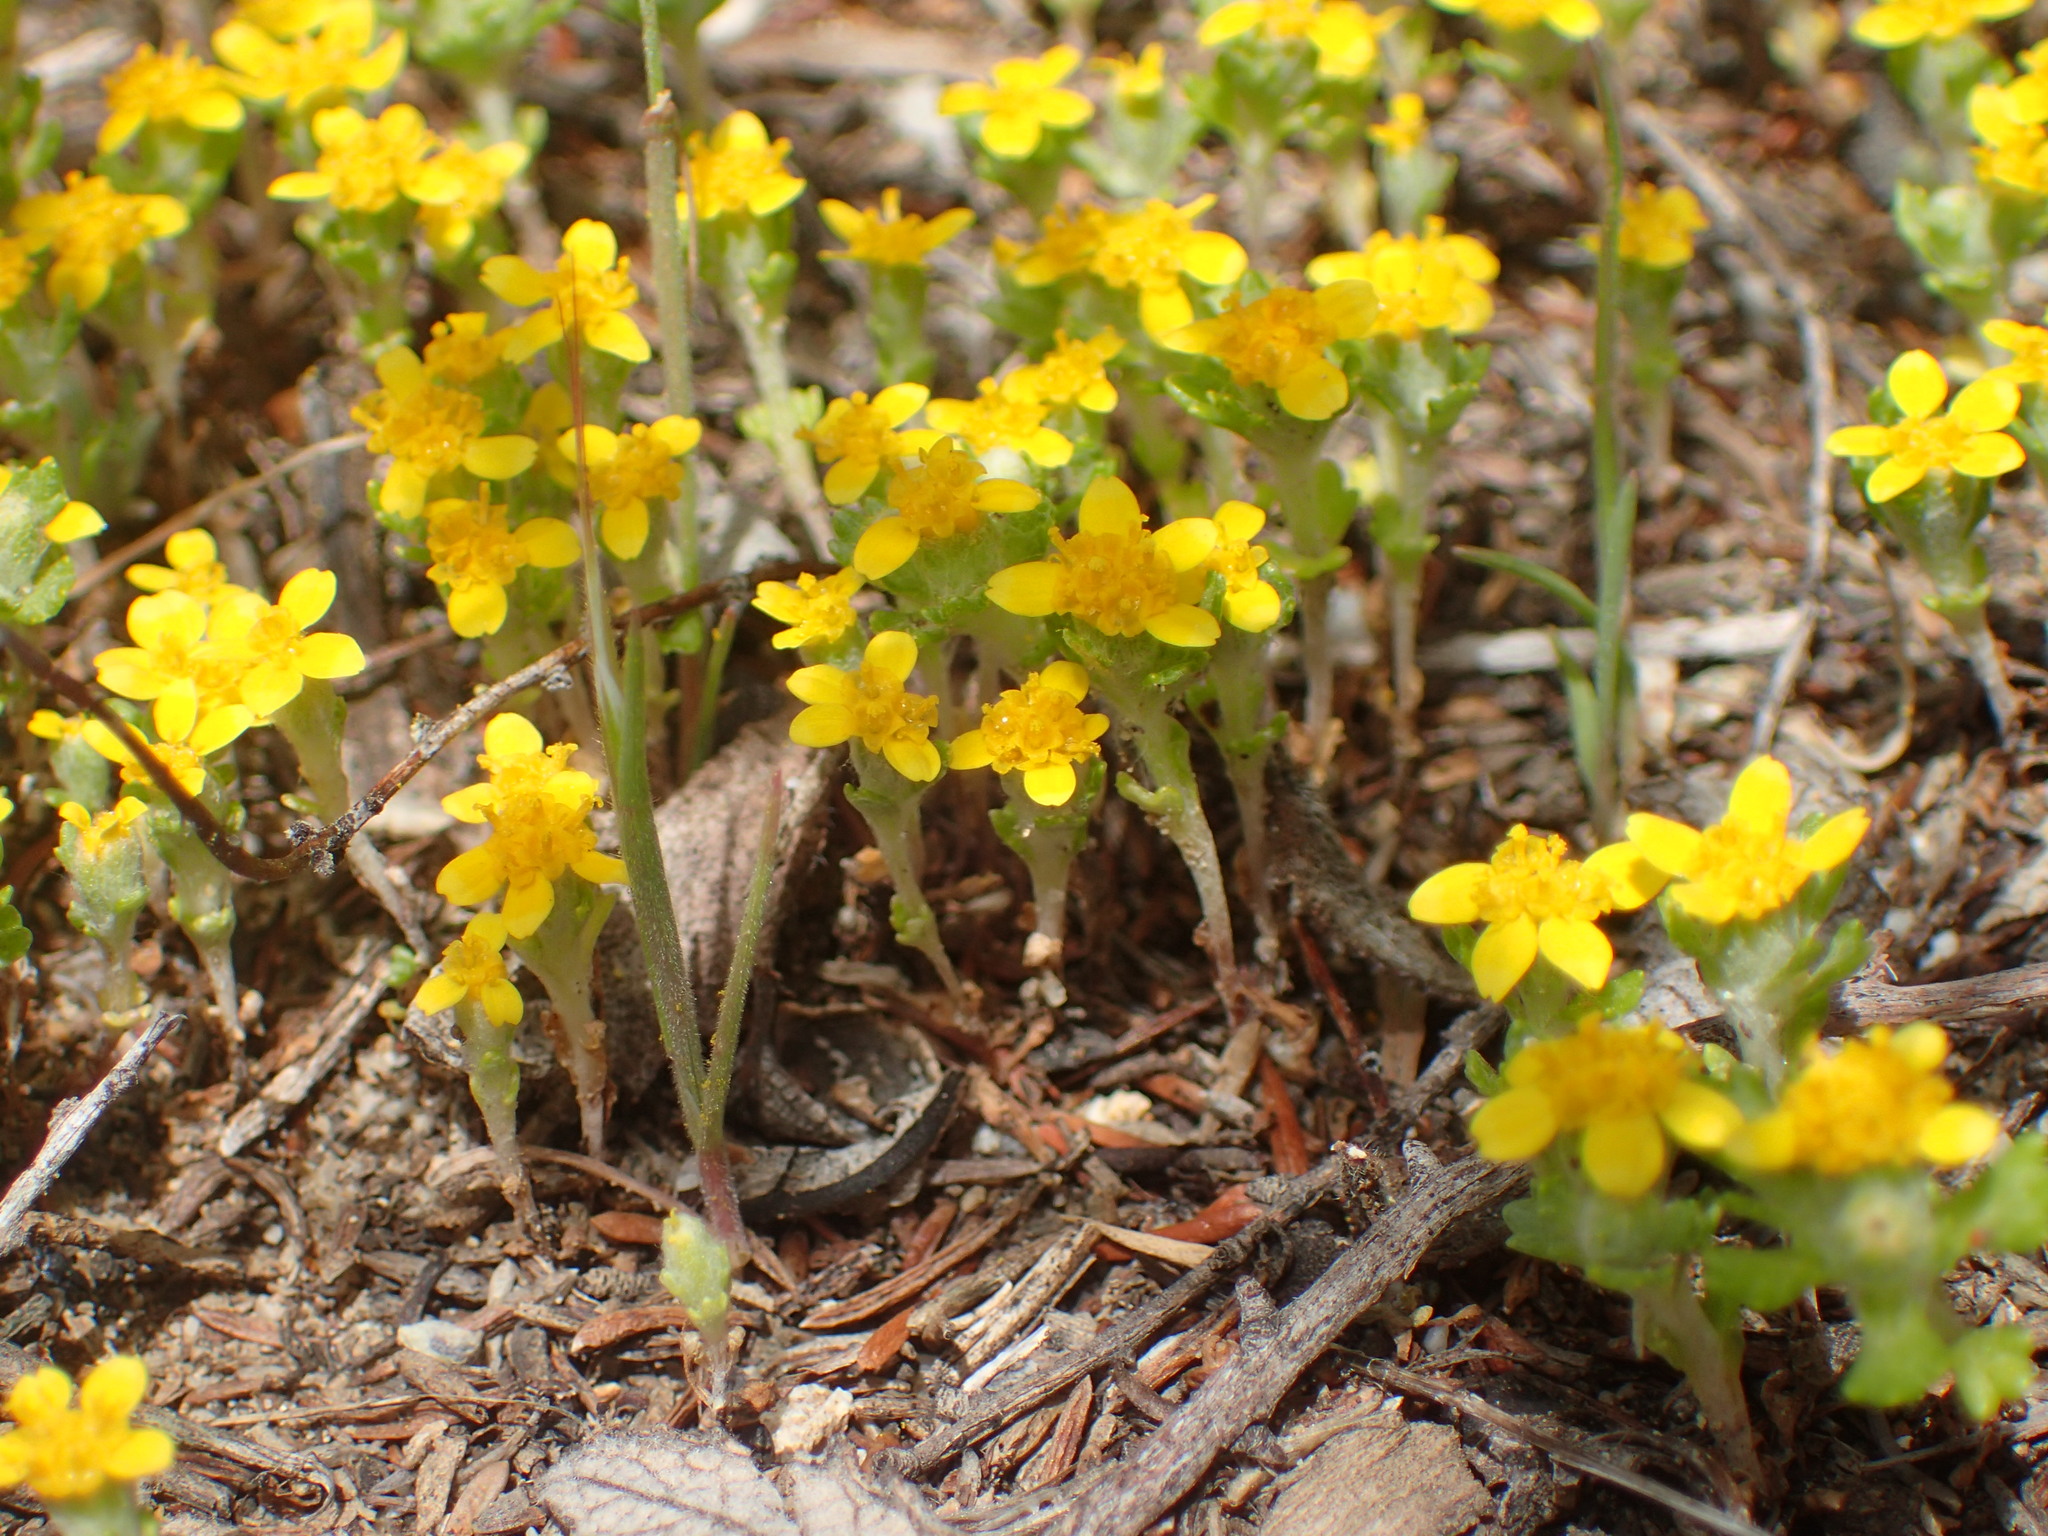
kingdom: Plantae
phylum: Tracheophyta
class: Magnoliopsida
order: Asterales
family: Asteraceae
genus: Eriophyllum
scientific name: Eriophyllum multicaule
